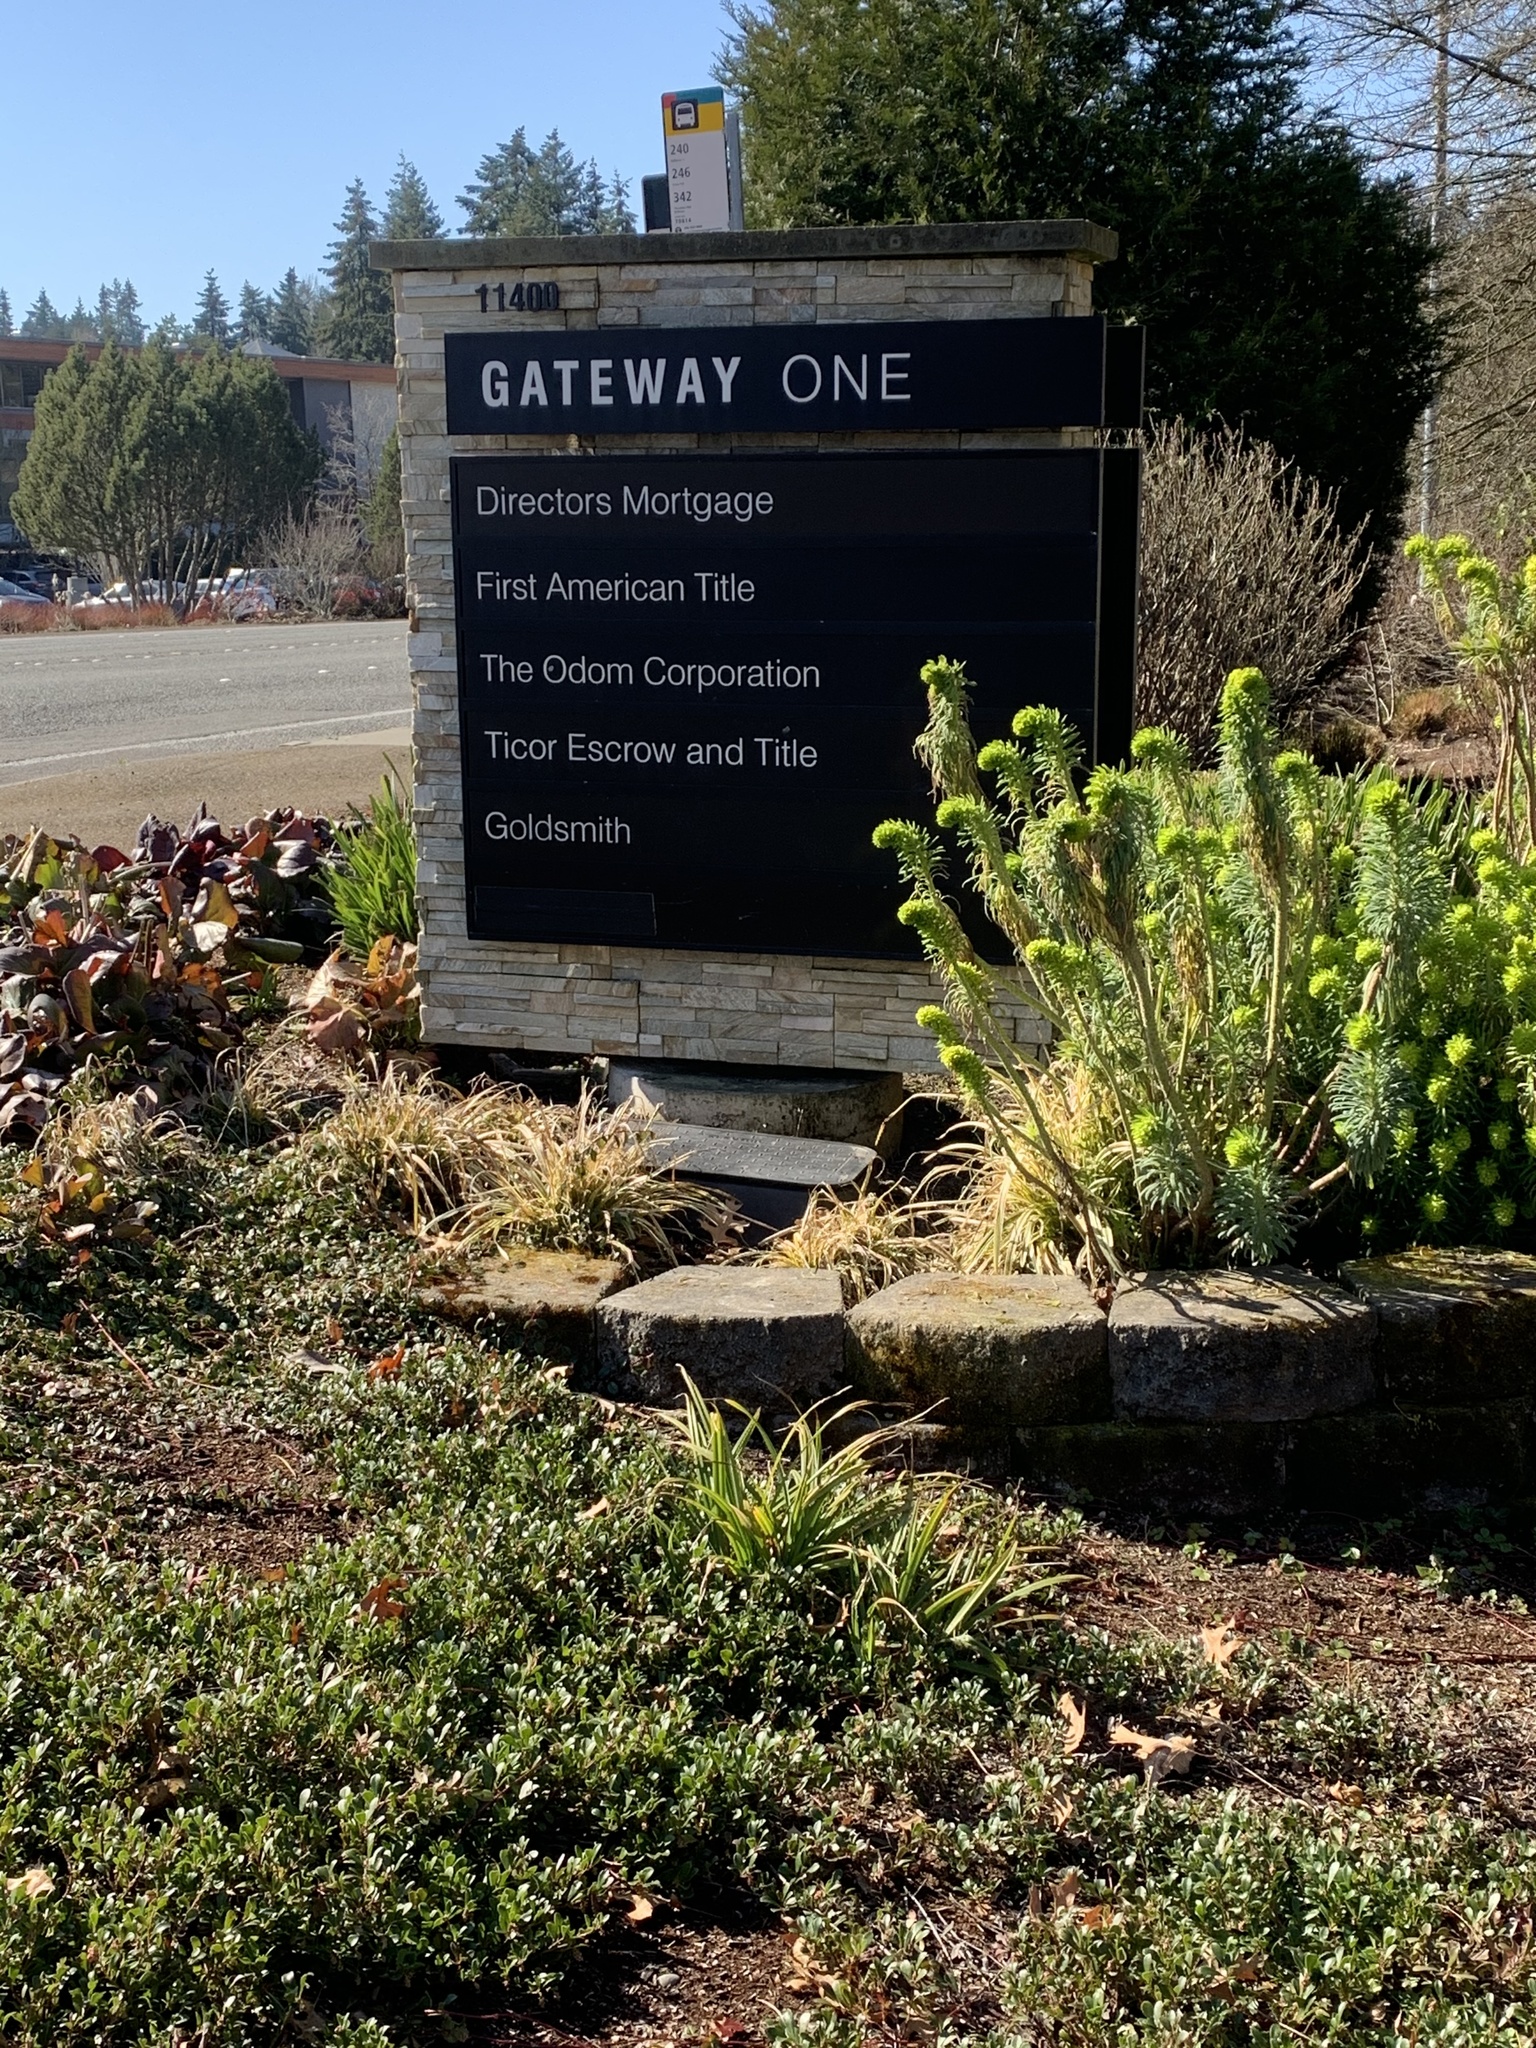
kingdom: Plantae
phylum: Tracheophyta
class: Liliopsida
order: Poales
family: Cyperaceae
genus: Carex
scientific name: Carex pendula
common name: Pendulous sedge
